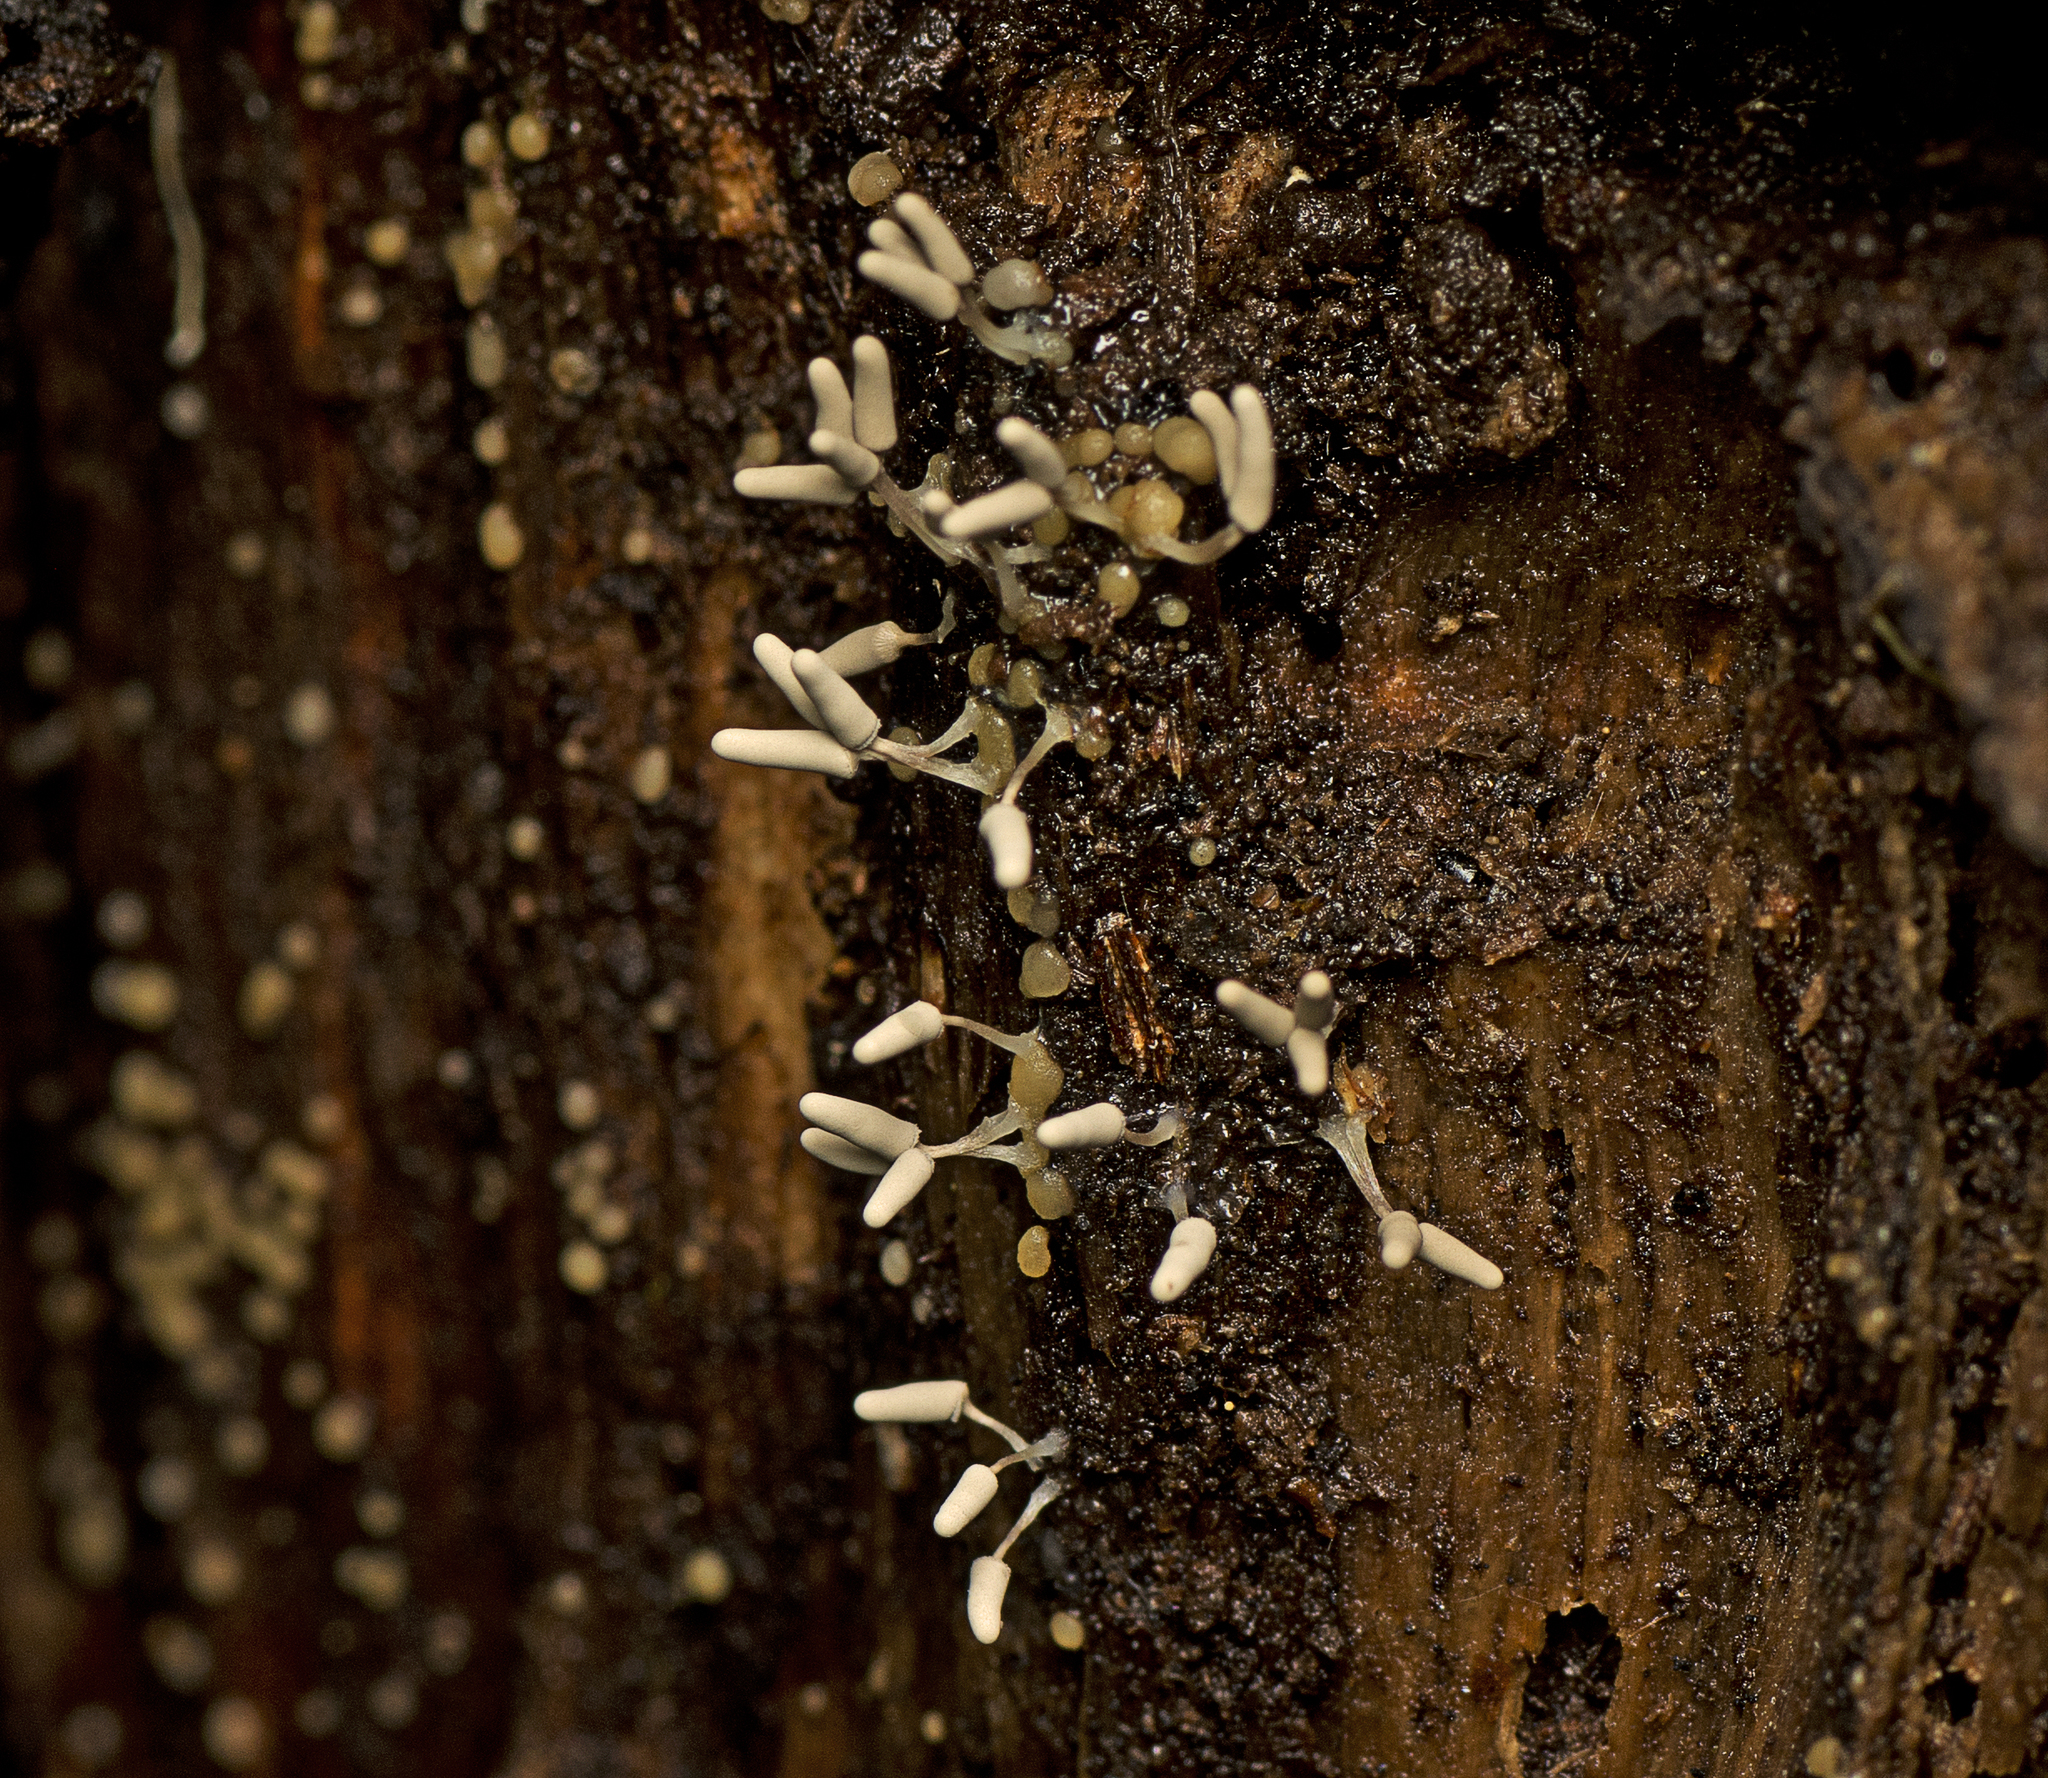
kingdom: Protozoa
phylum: Mycetozoa
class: Myxomycetes
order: Trichiales
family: Arcyriaceae
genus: Arcyria
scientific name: Arcyria cinerea
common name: White carnival candy slime mold
